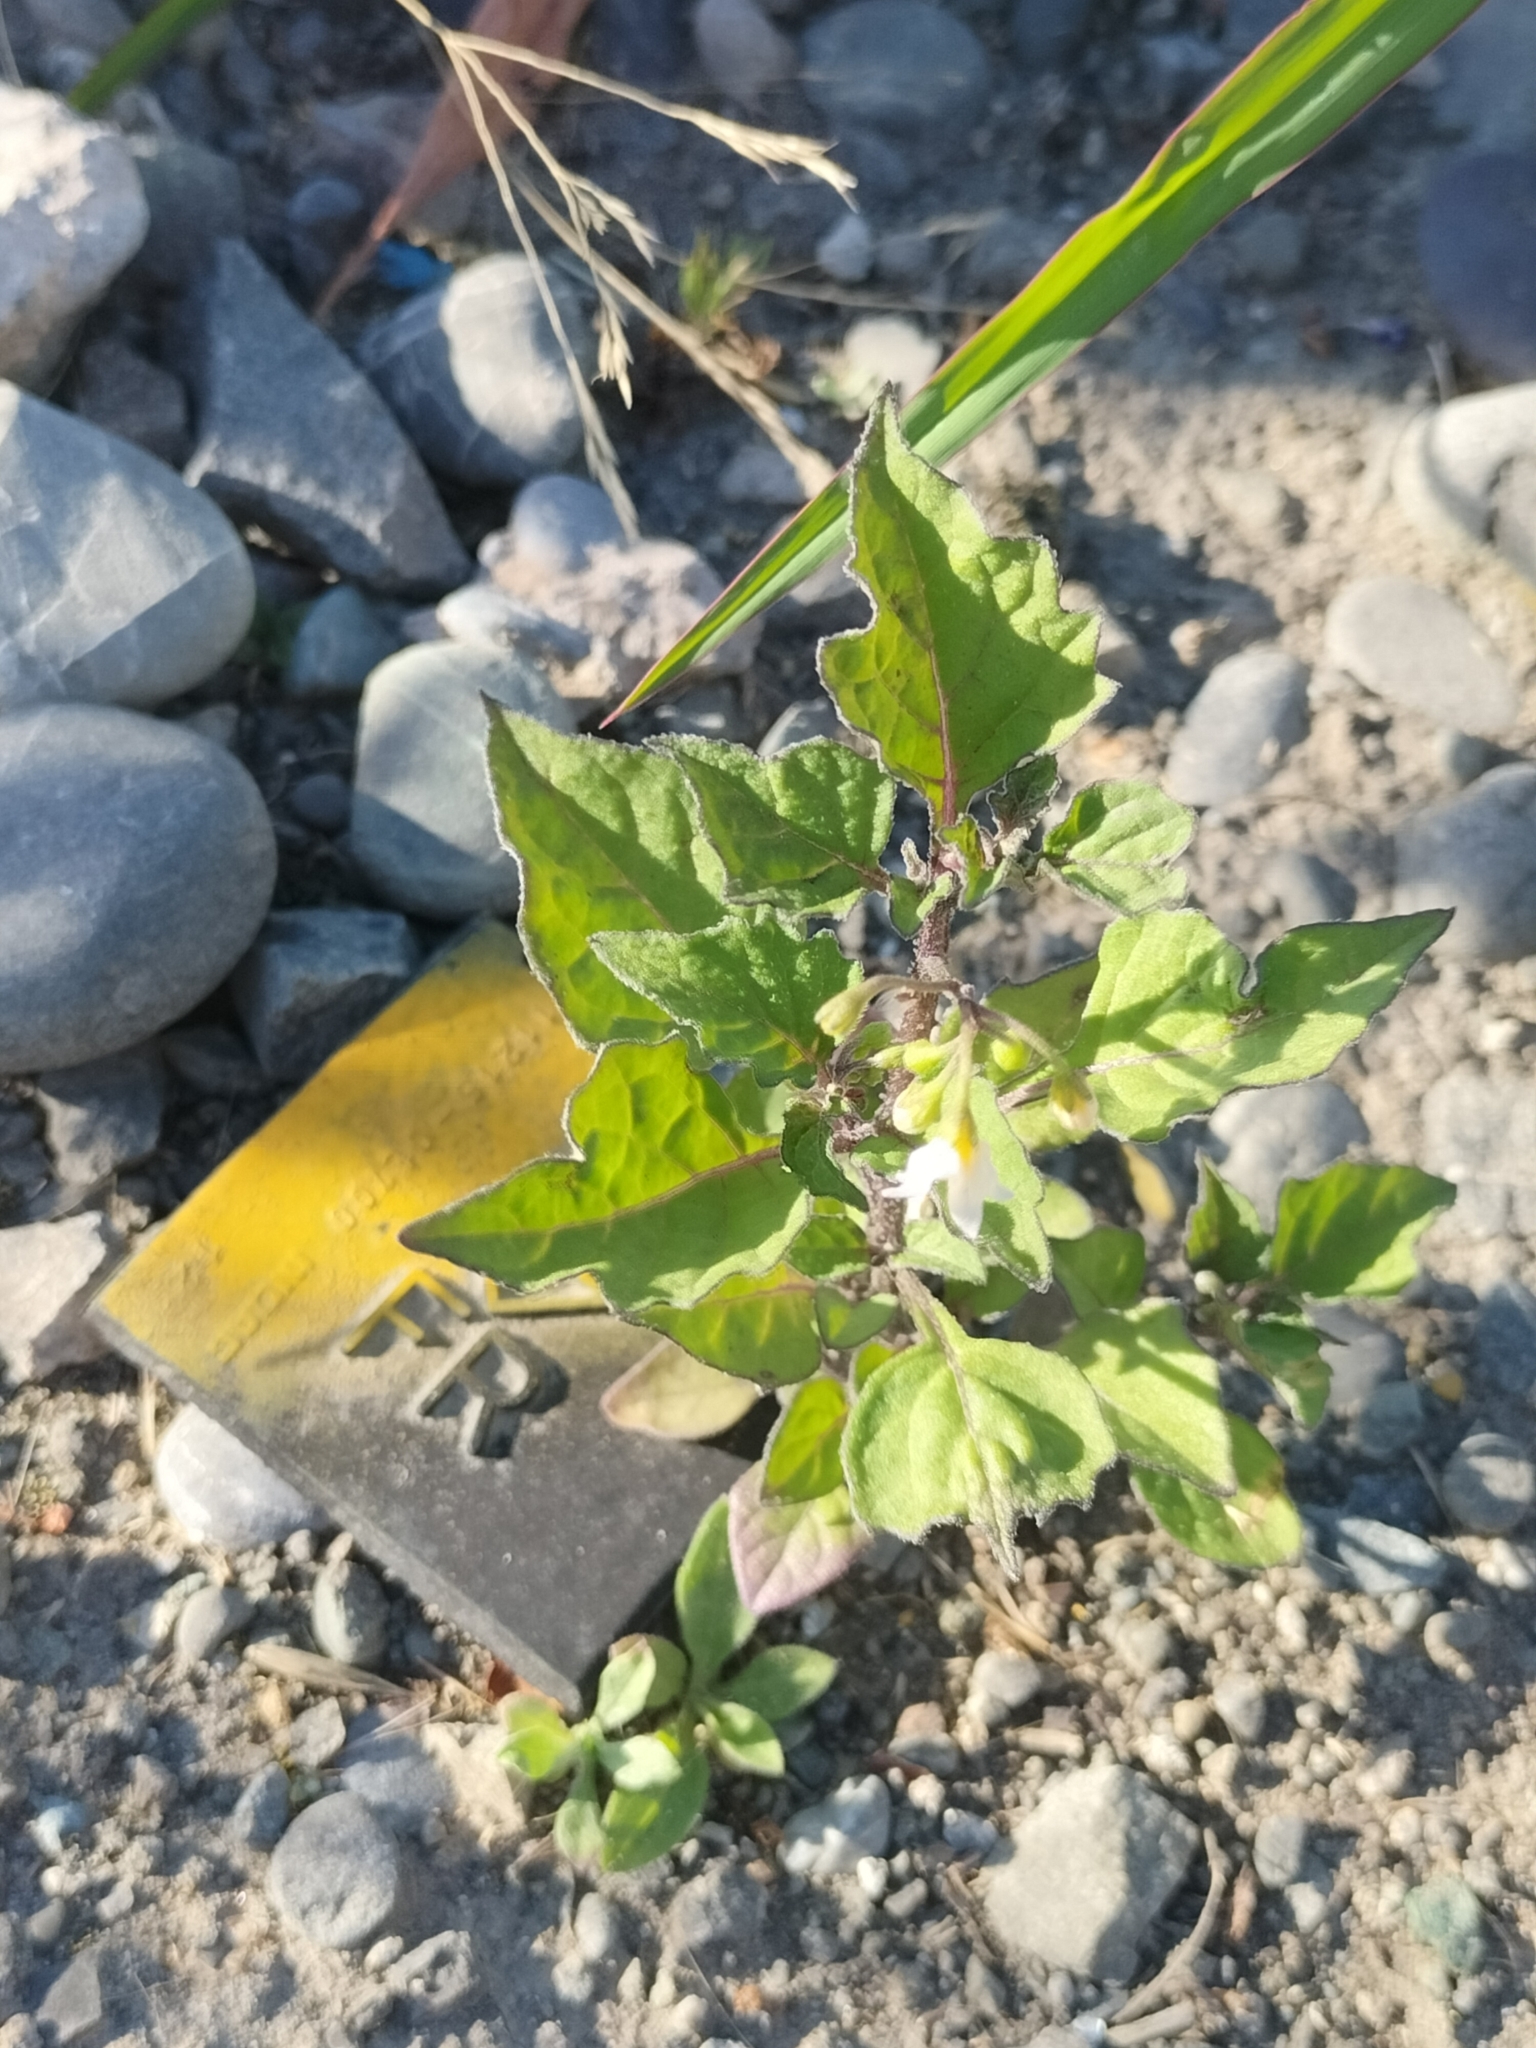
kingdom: Plantae
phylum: Tracheophyta
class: Magnoliopsida
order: Solanales
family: Solanaceae
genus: Solanum
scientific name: Solanum nigrum
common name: Black nightshade
